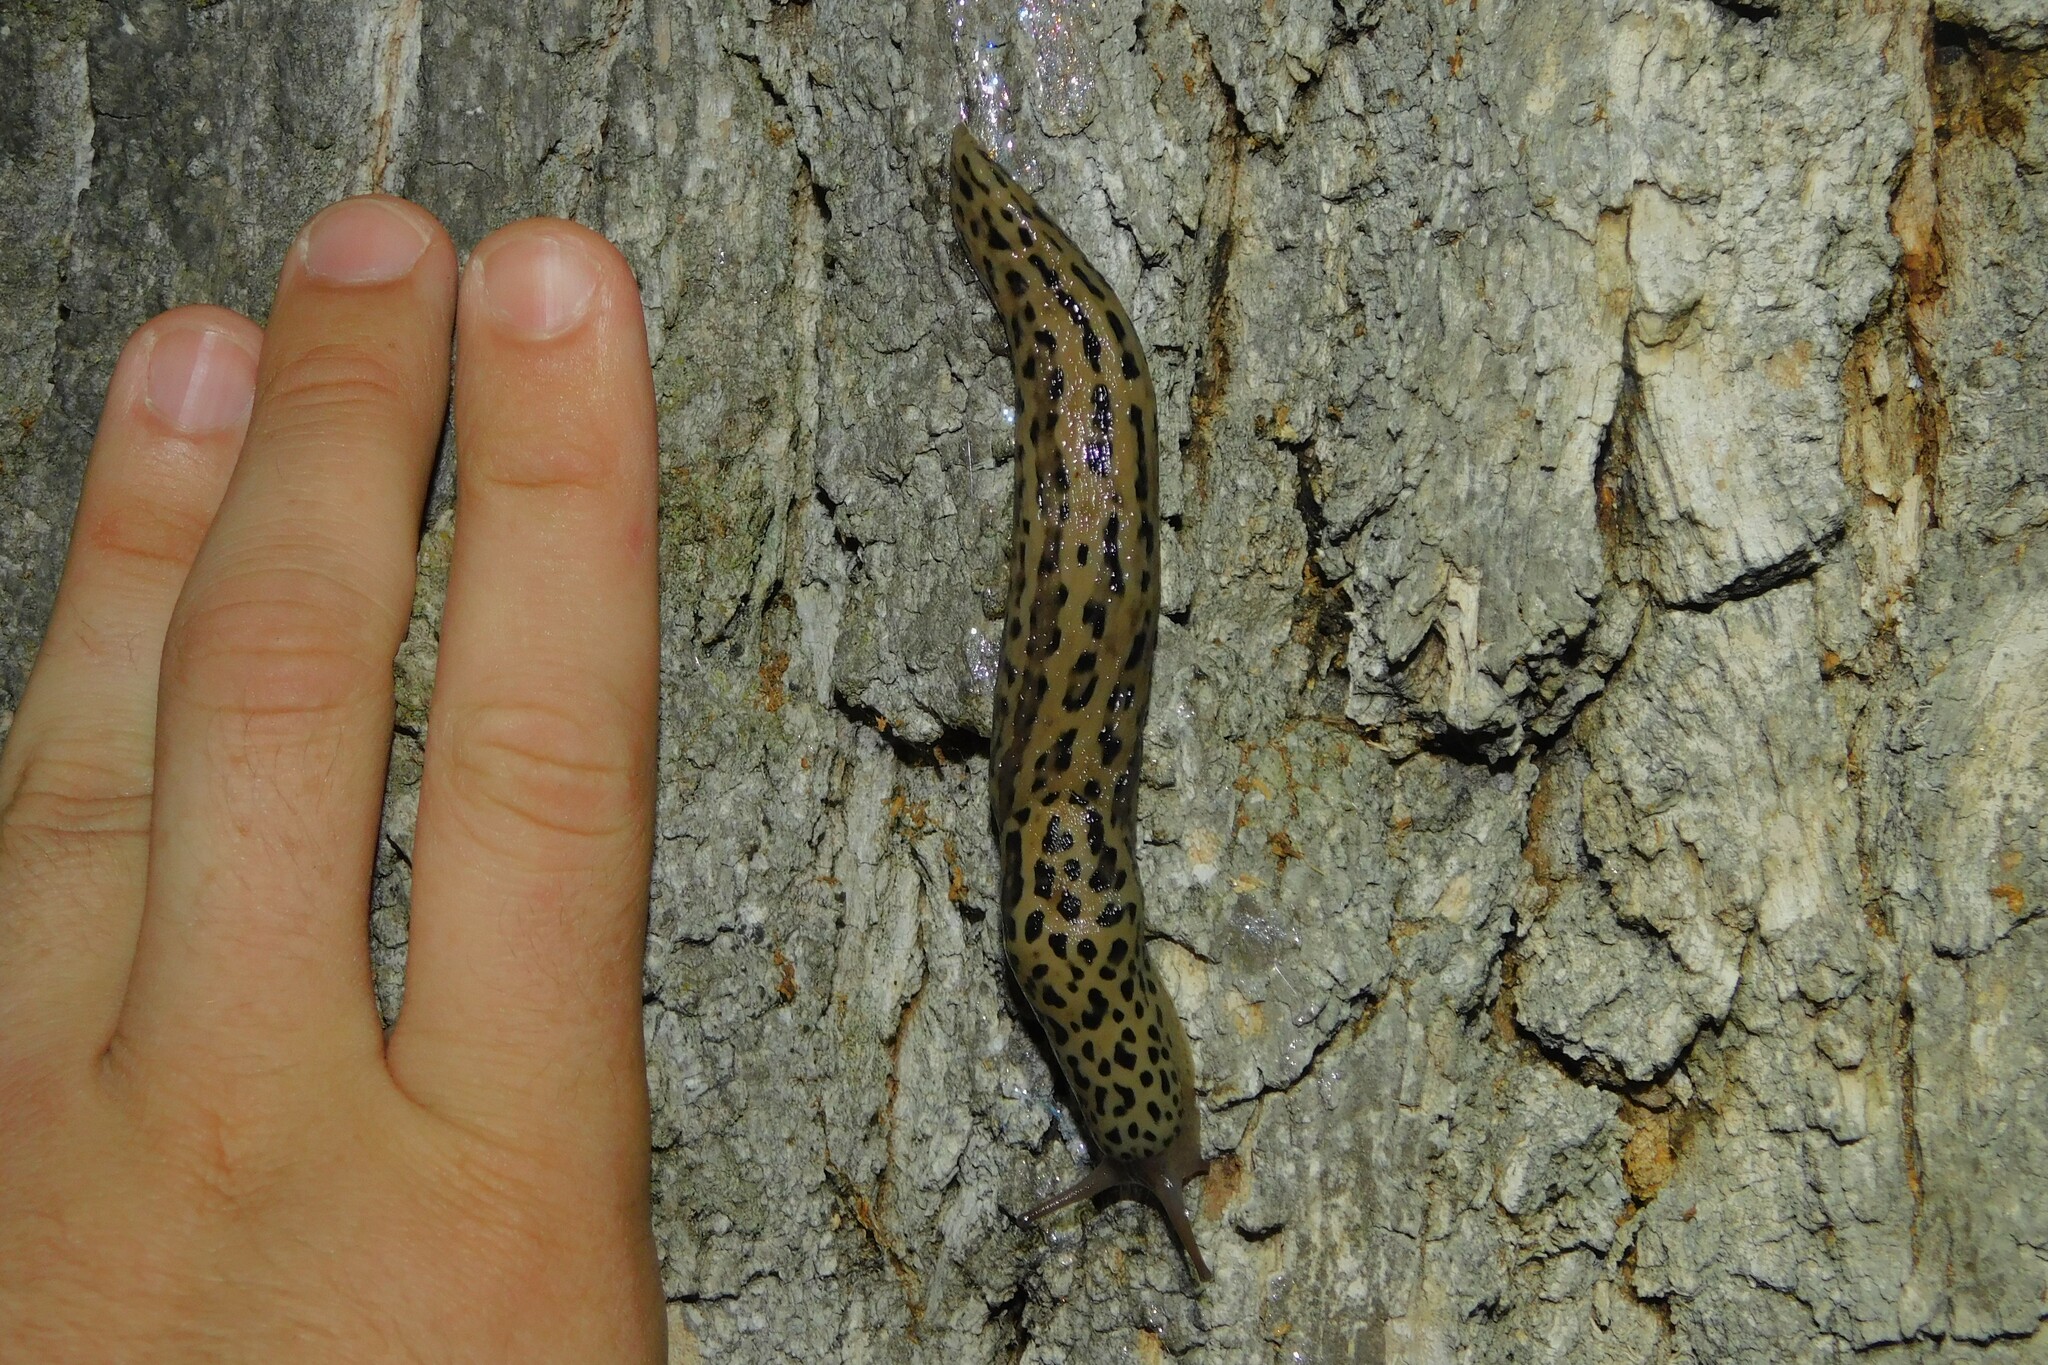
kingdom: Animalia
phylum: Mollusca
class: Gastropoda
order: Stylommatophora
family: Limacidae
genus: Limax
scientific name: Limax maximus
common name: Great grey slug
